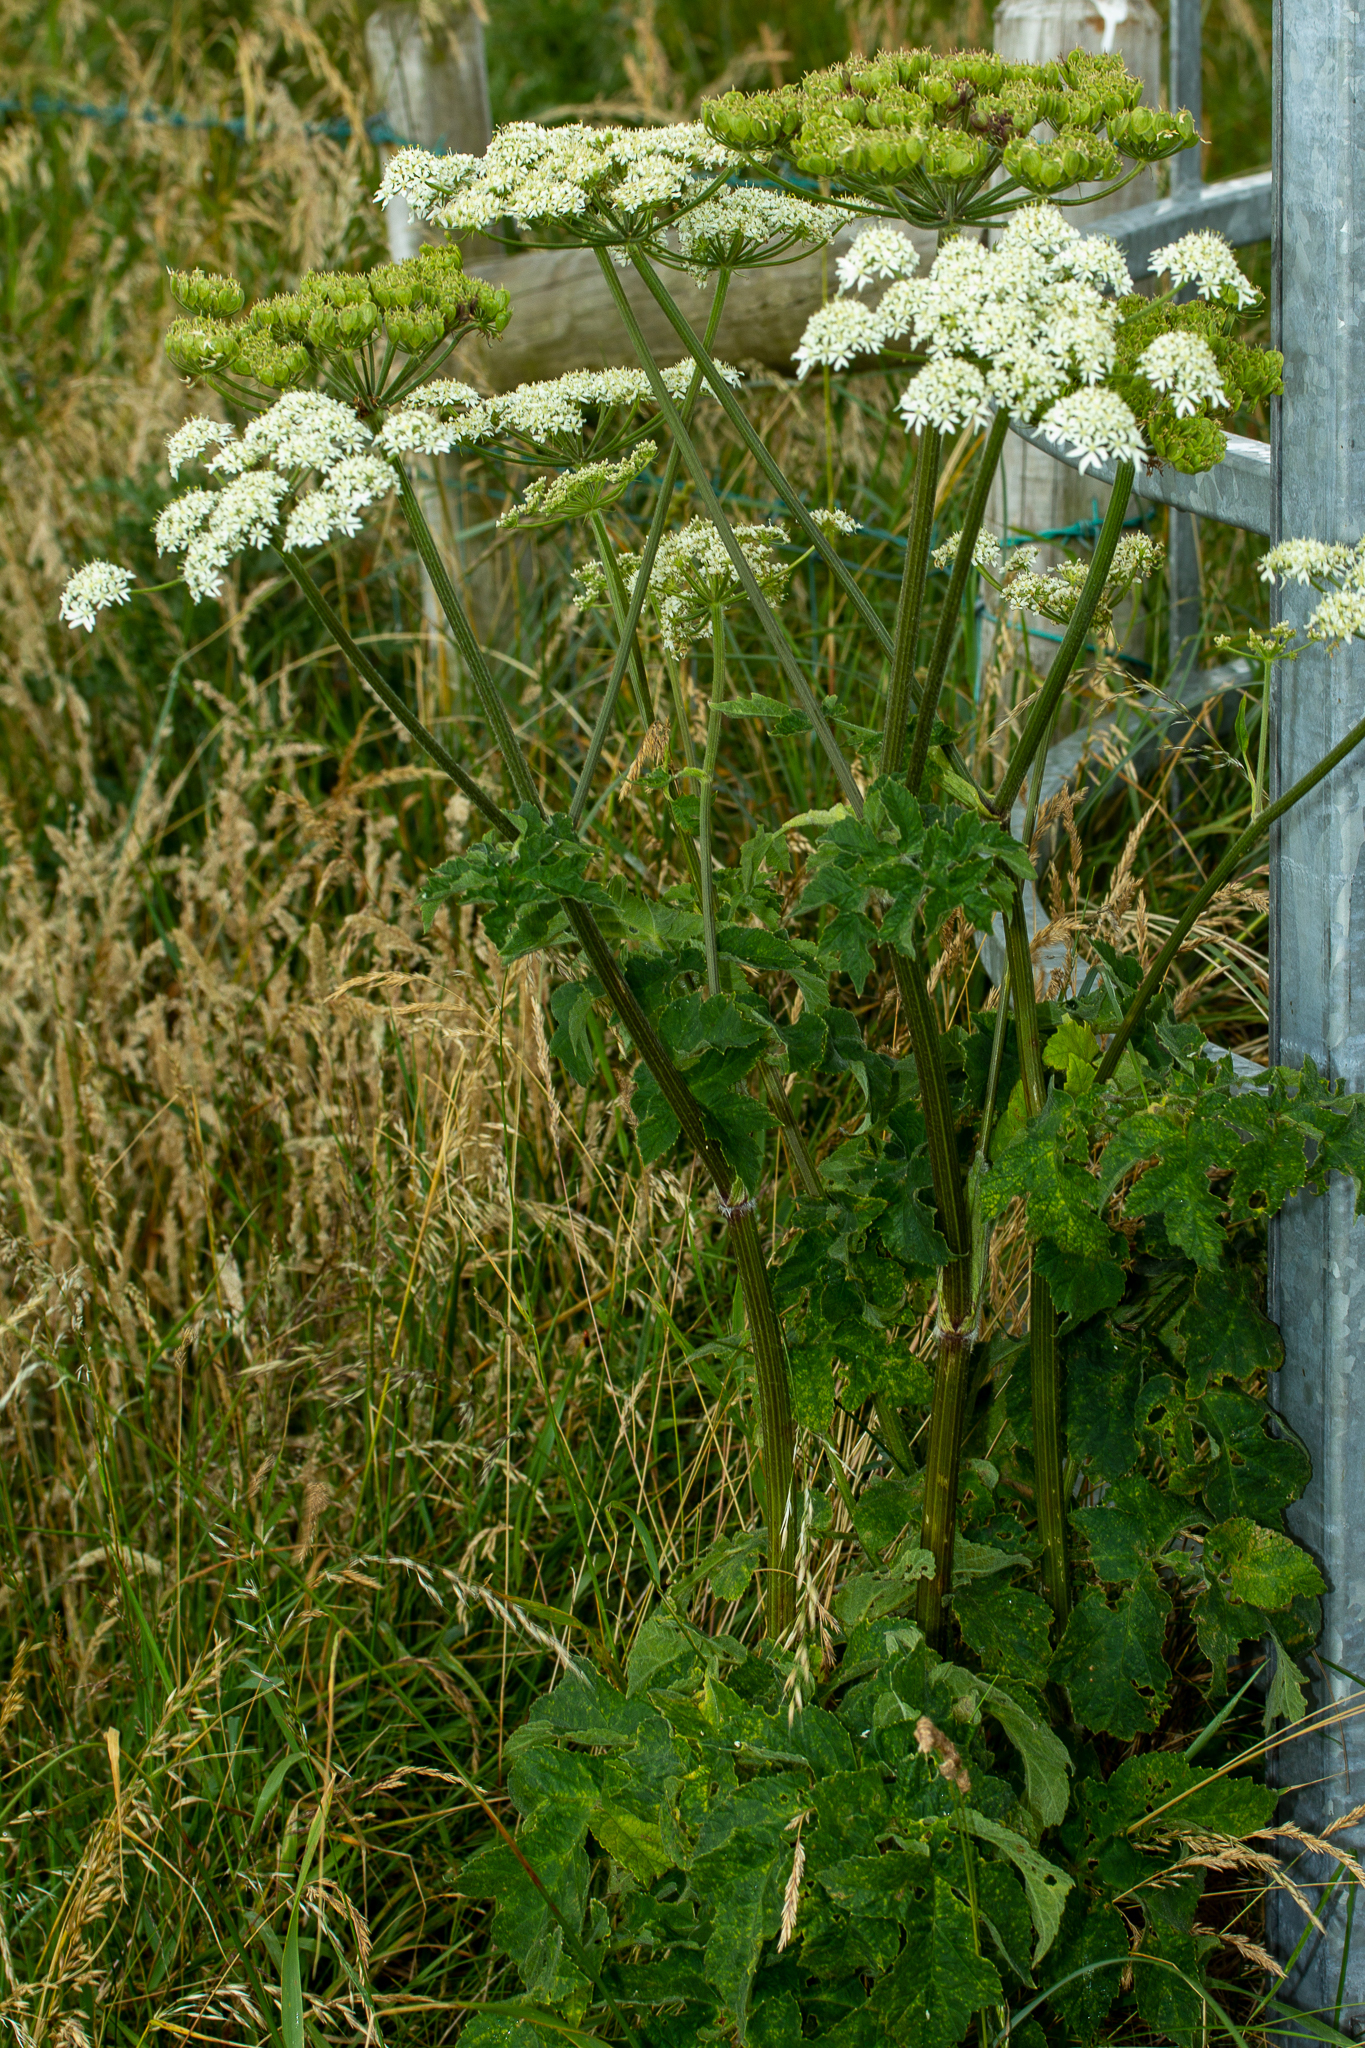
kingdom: Plantae
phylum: Tracheophyta
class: Magnoliopsida
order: Apiales
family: Apiaceae
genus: Heracleum
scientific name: Heracleum sphondylium
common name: Hogweed
